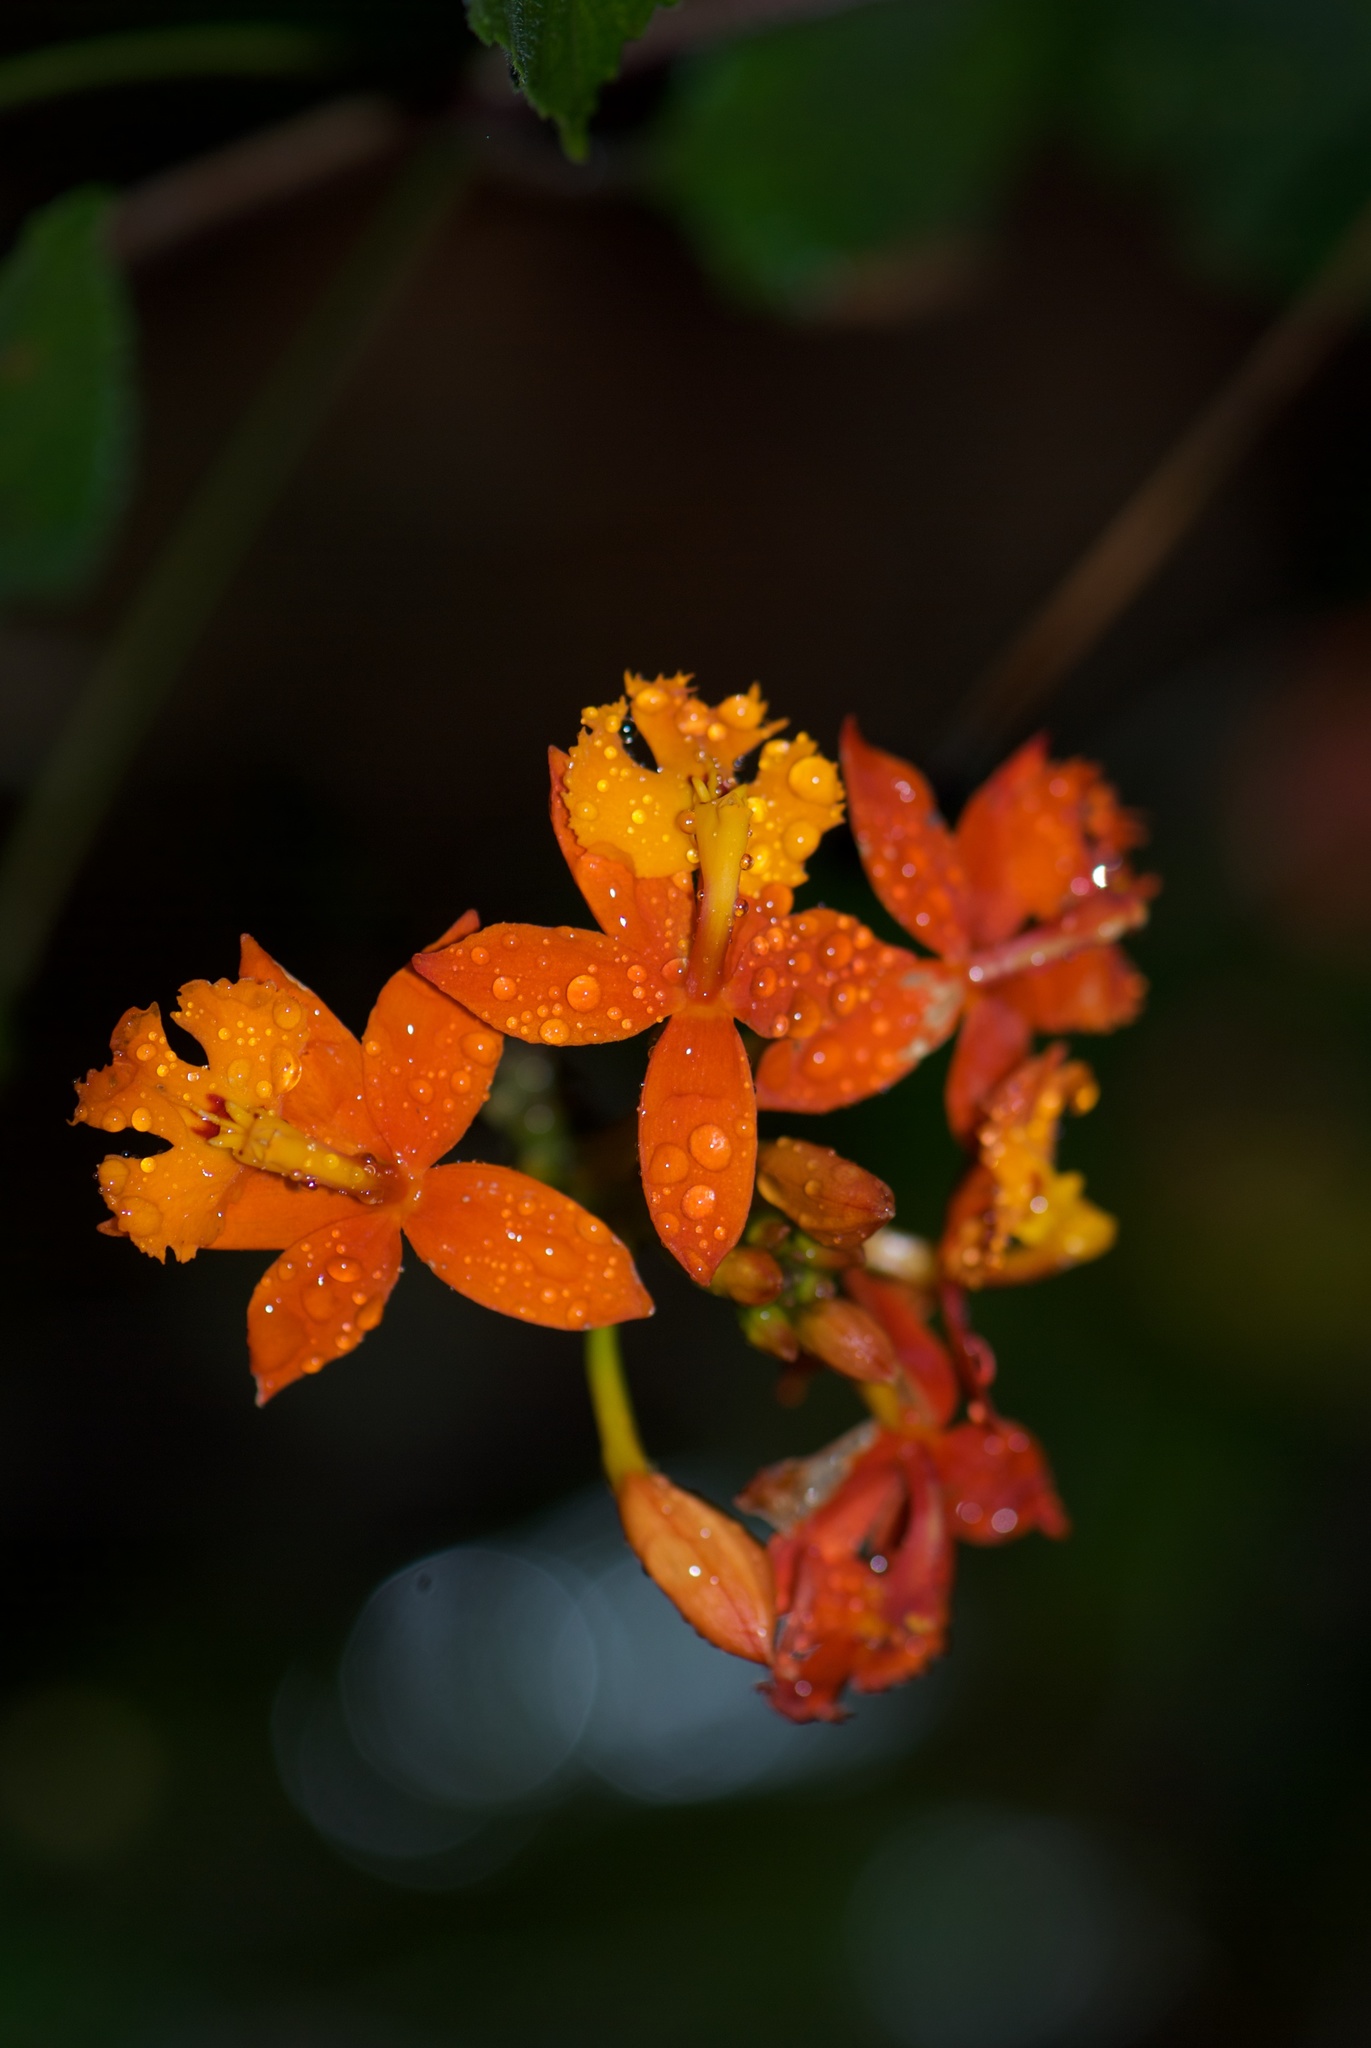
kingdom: Plantae
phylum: Tracheophyta
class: Liliopsida
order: Asparagales
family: Orchidaceae
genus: Epidendrum
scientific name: Epidendrum radicans
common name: Fire star orchid
